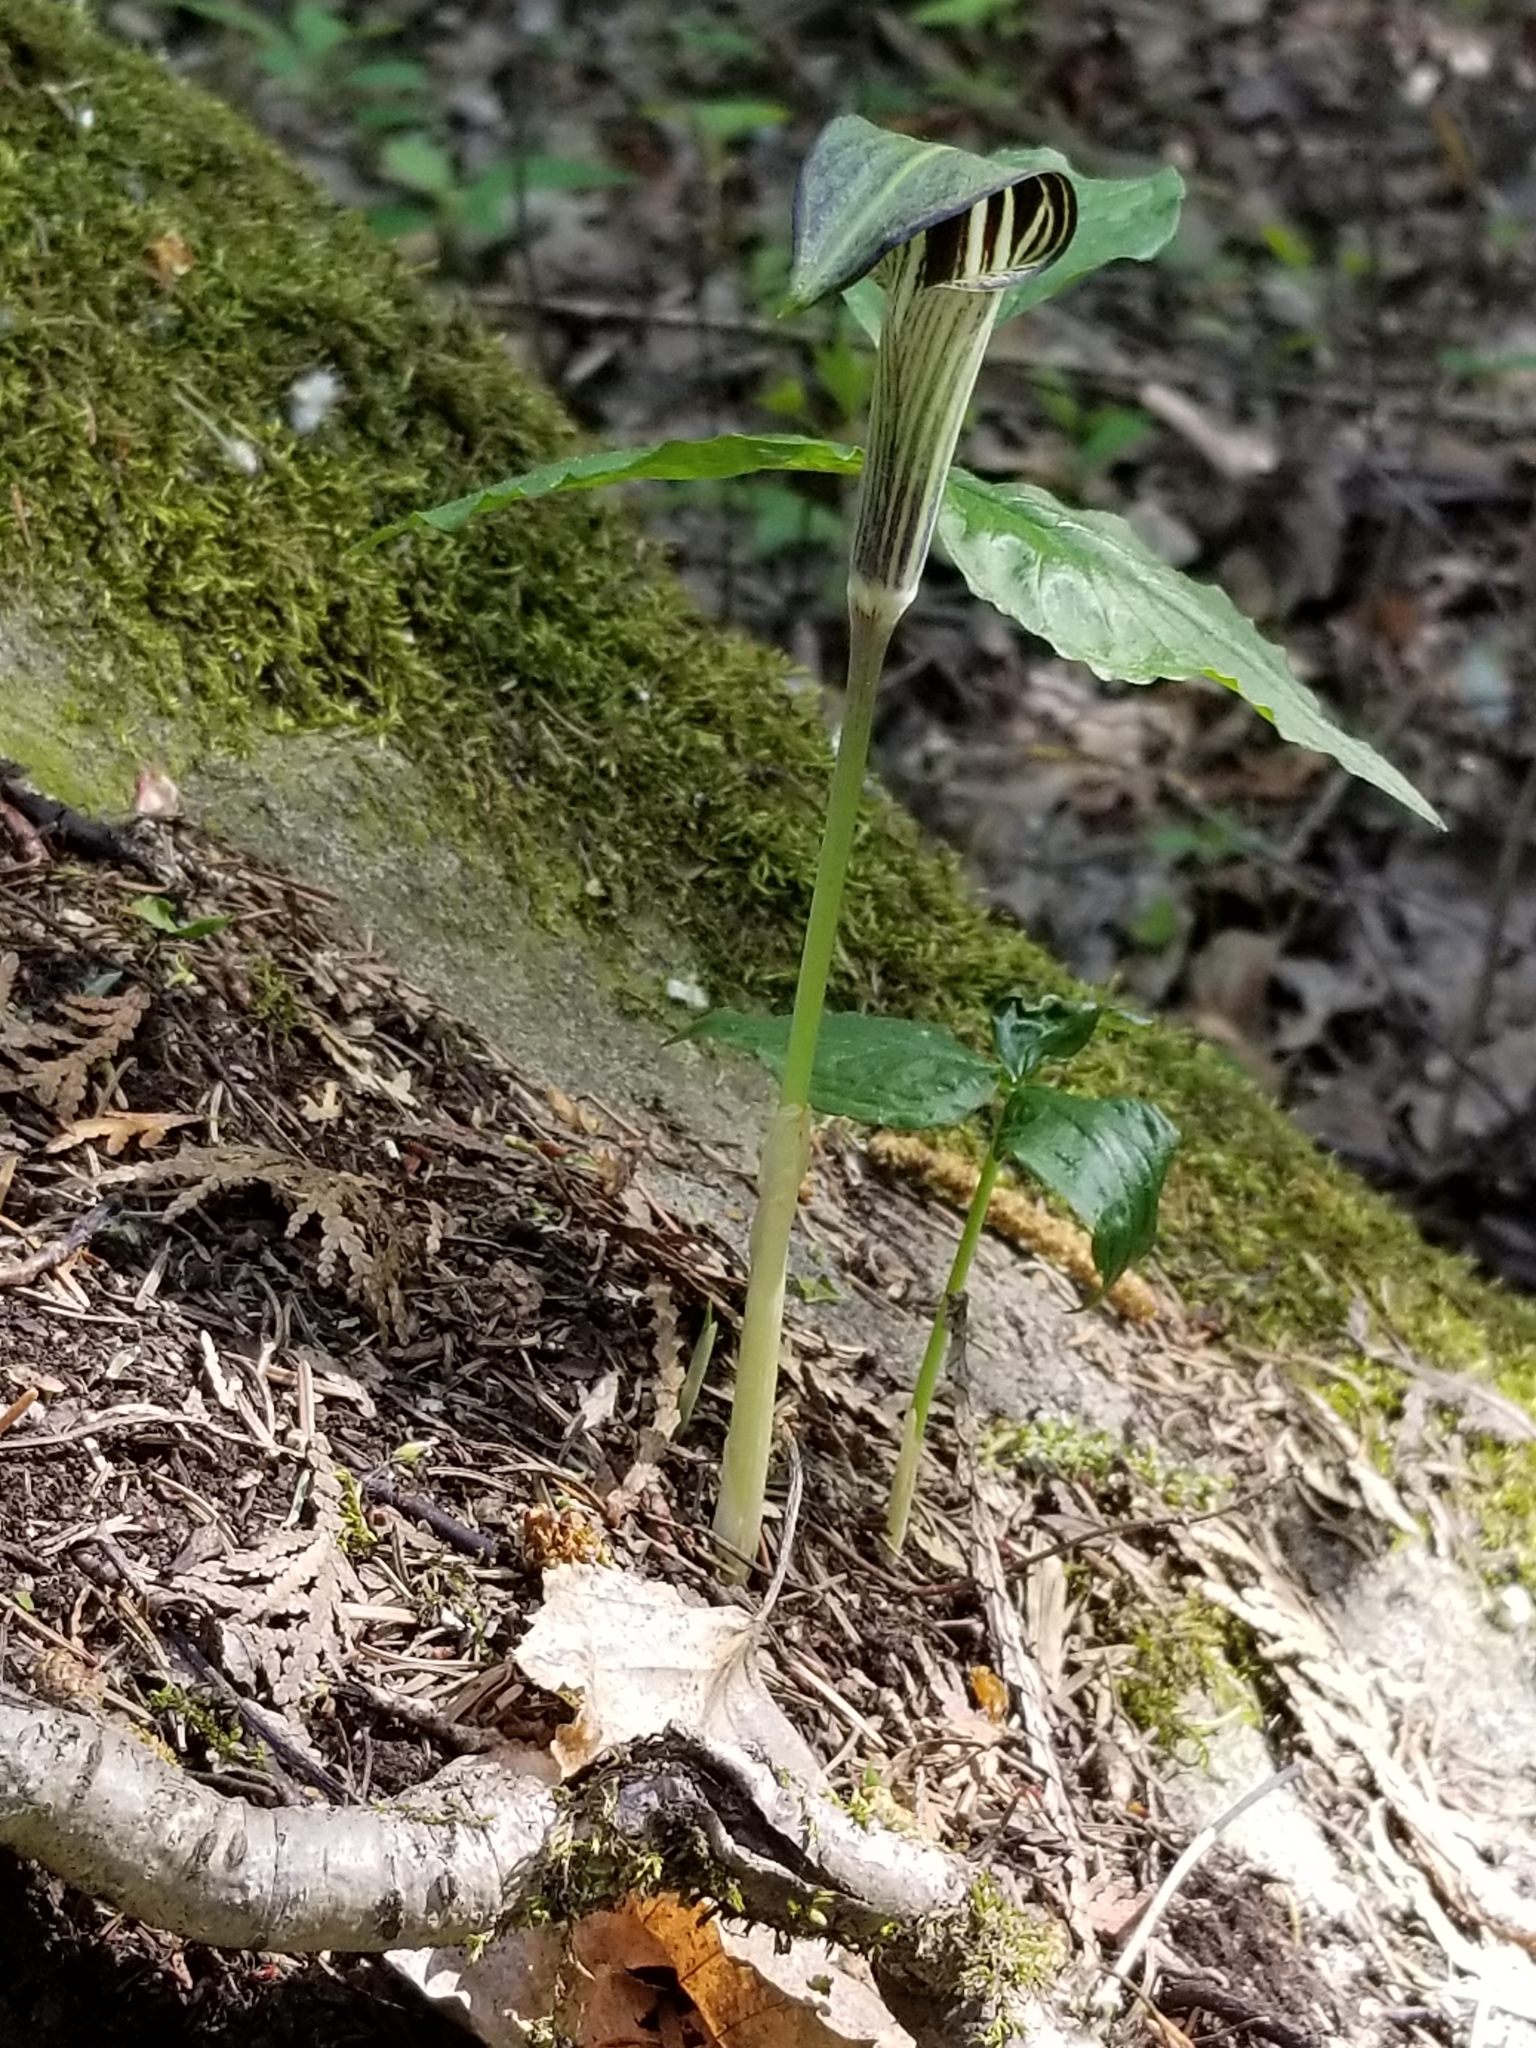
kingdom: Plantae
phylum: Tracheophyta
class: Liliopsida
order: Alismatales
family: Araceae
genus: Arisaema
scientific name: Arisaema triphyllum
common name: Jack-in-the-pulpit
